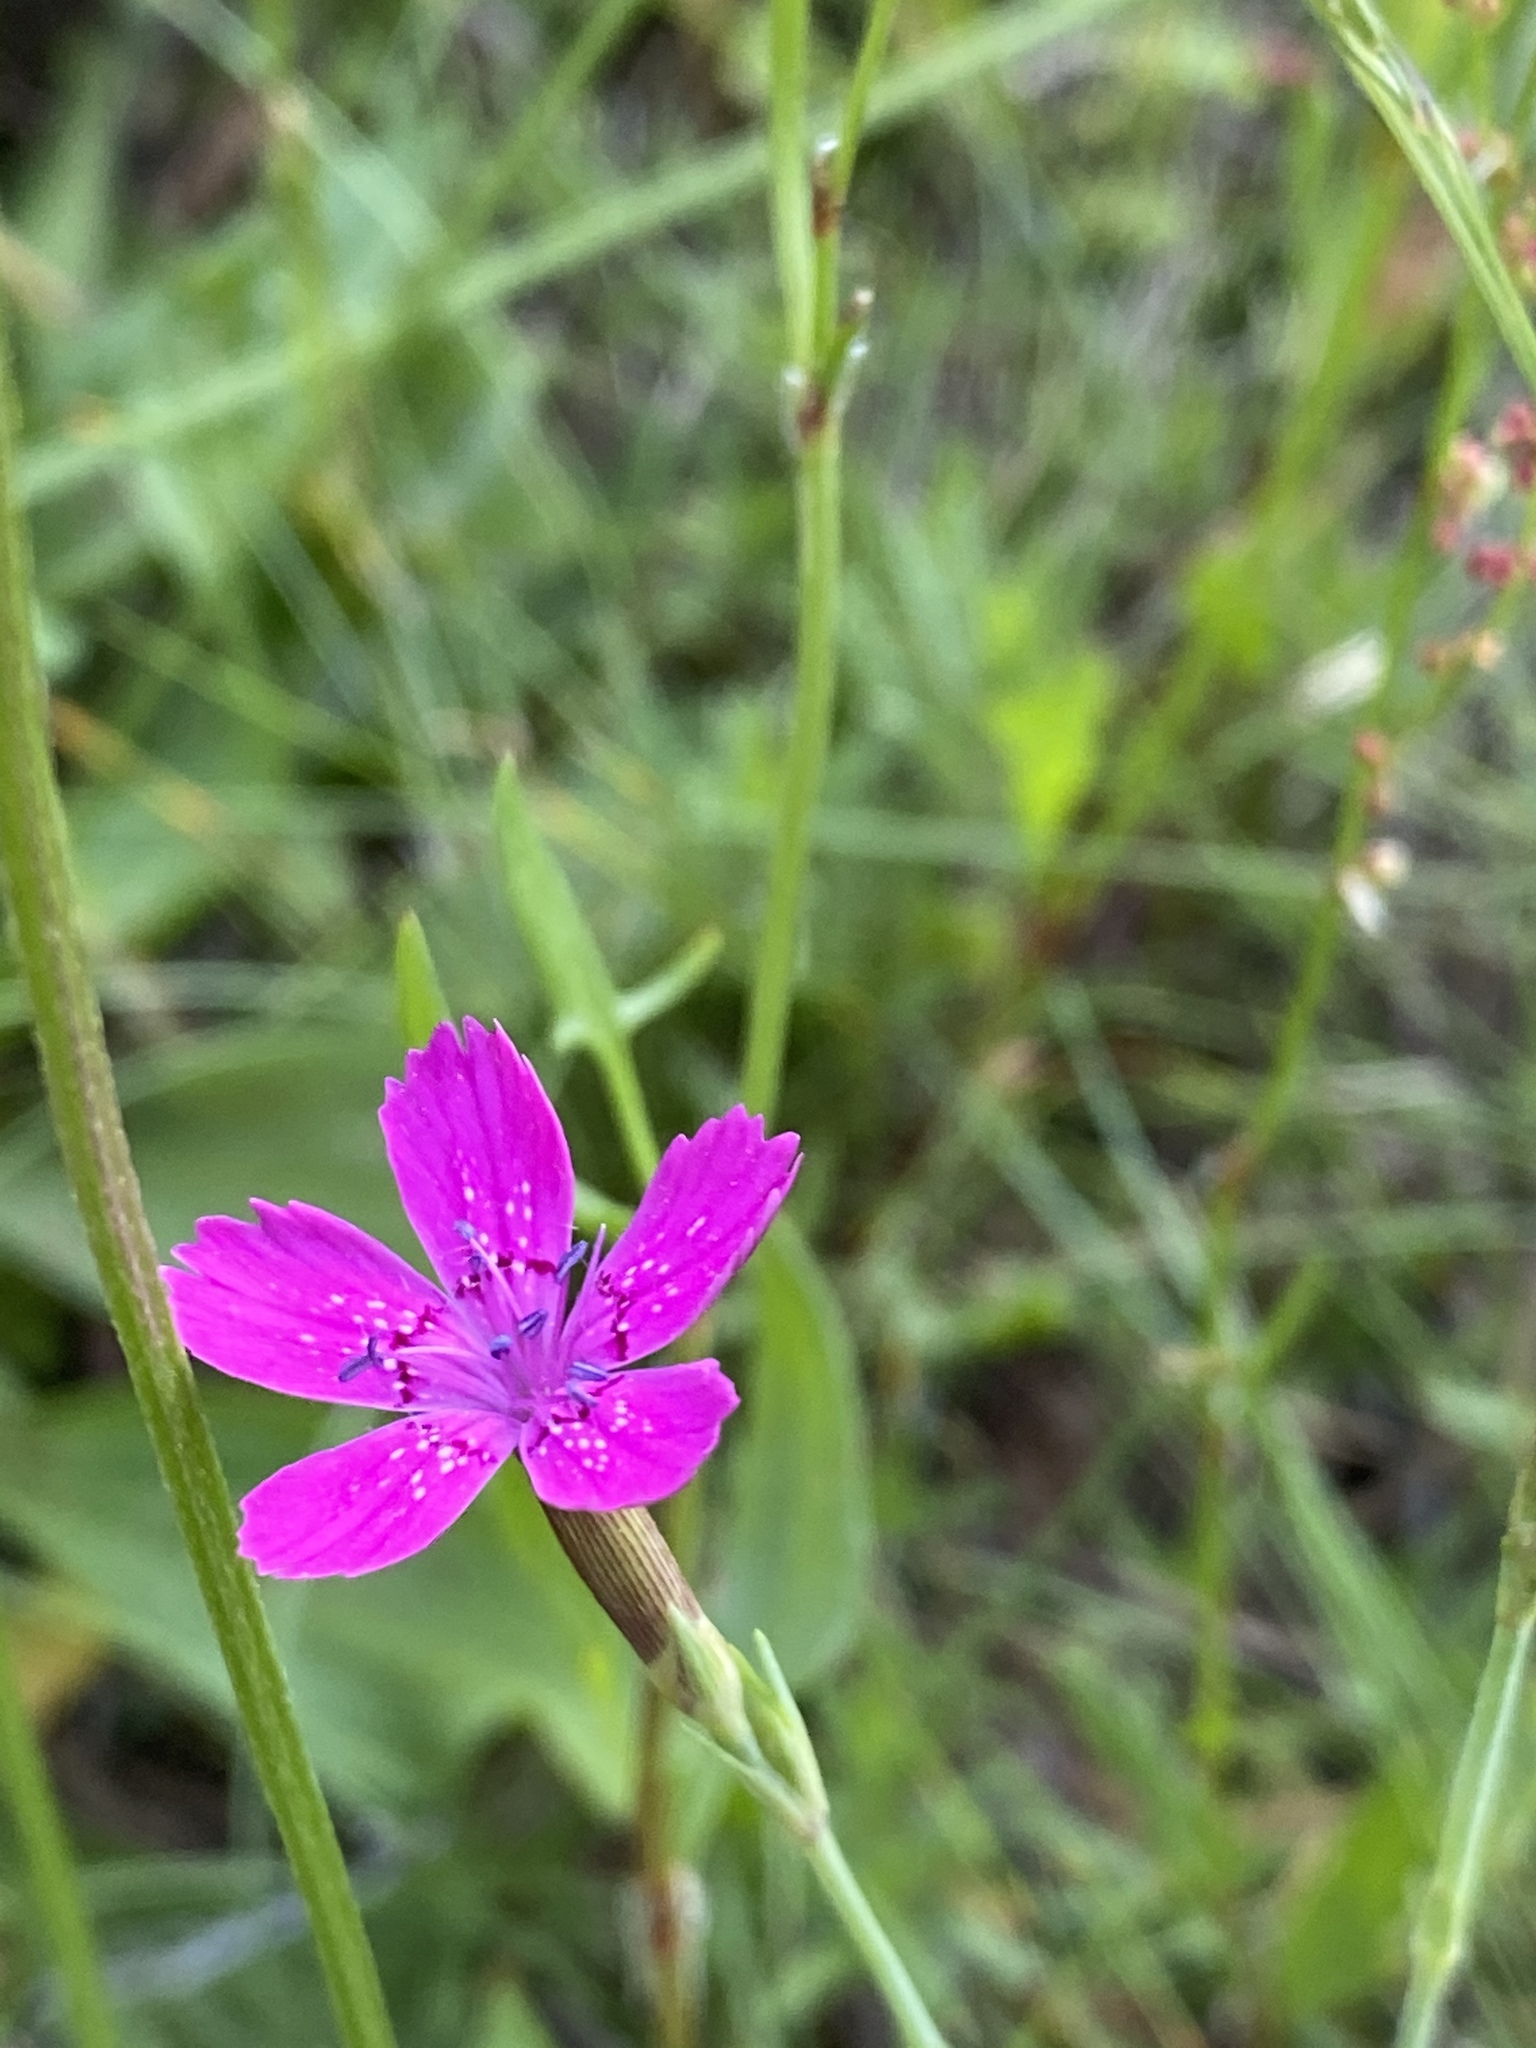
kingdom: Plantae
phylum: Tracheophyta
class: Magnoliopsida
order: Caryophyllales
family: Caryophyllaceae
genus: Dianthus
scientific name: Dianthus deltoides
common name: Maiden pink
